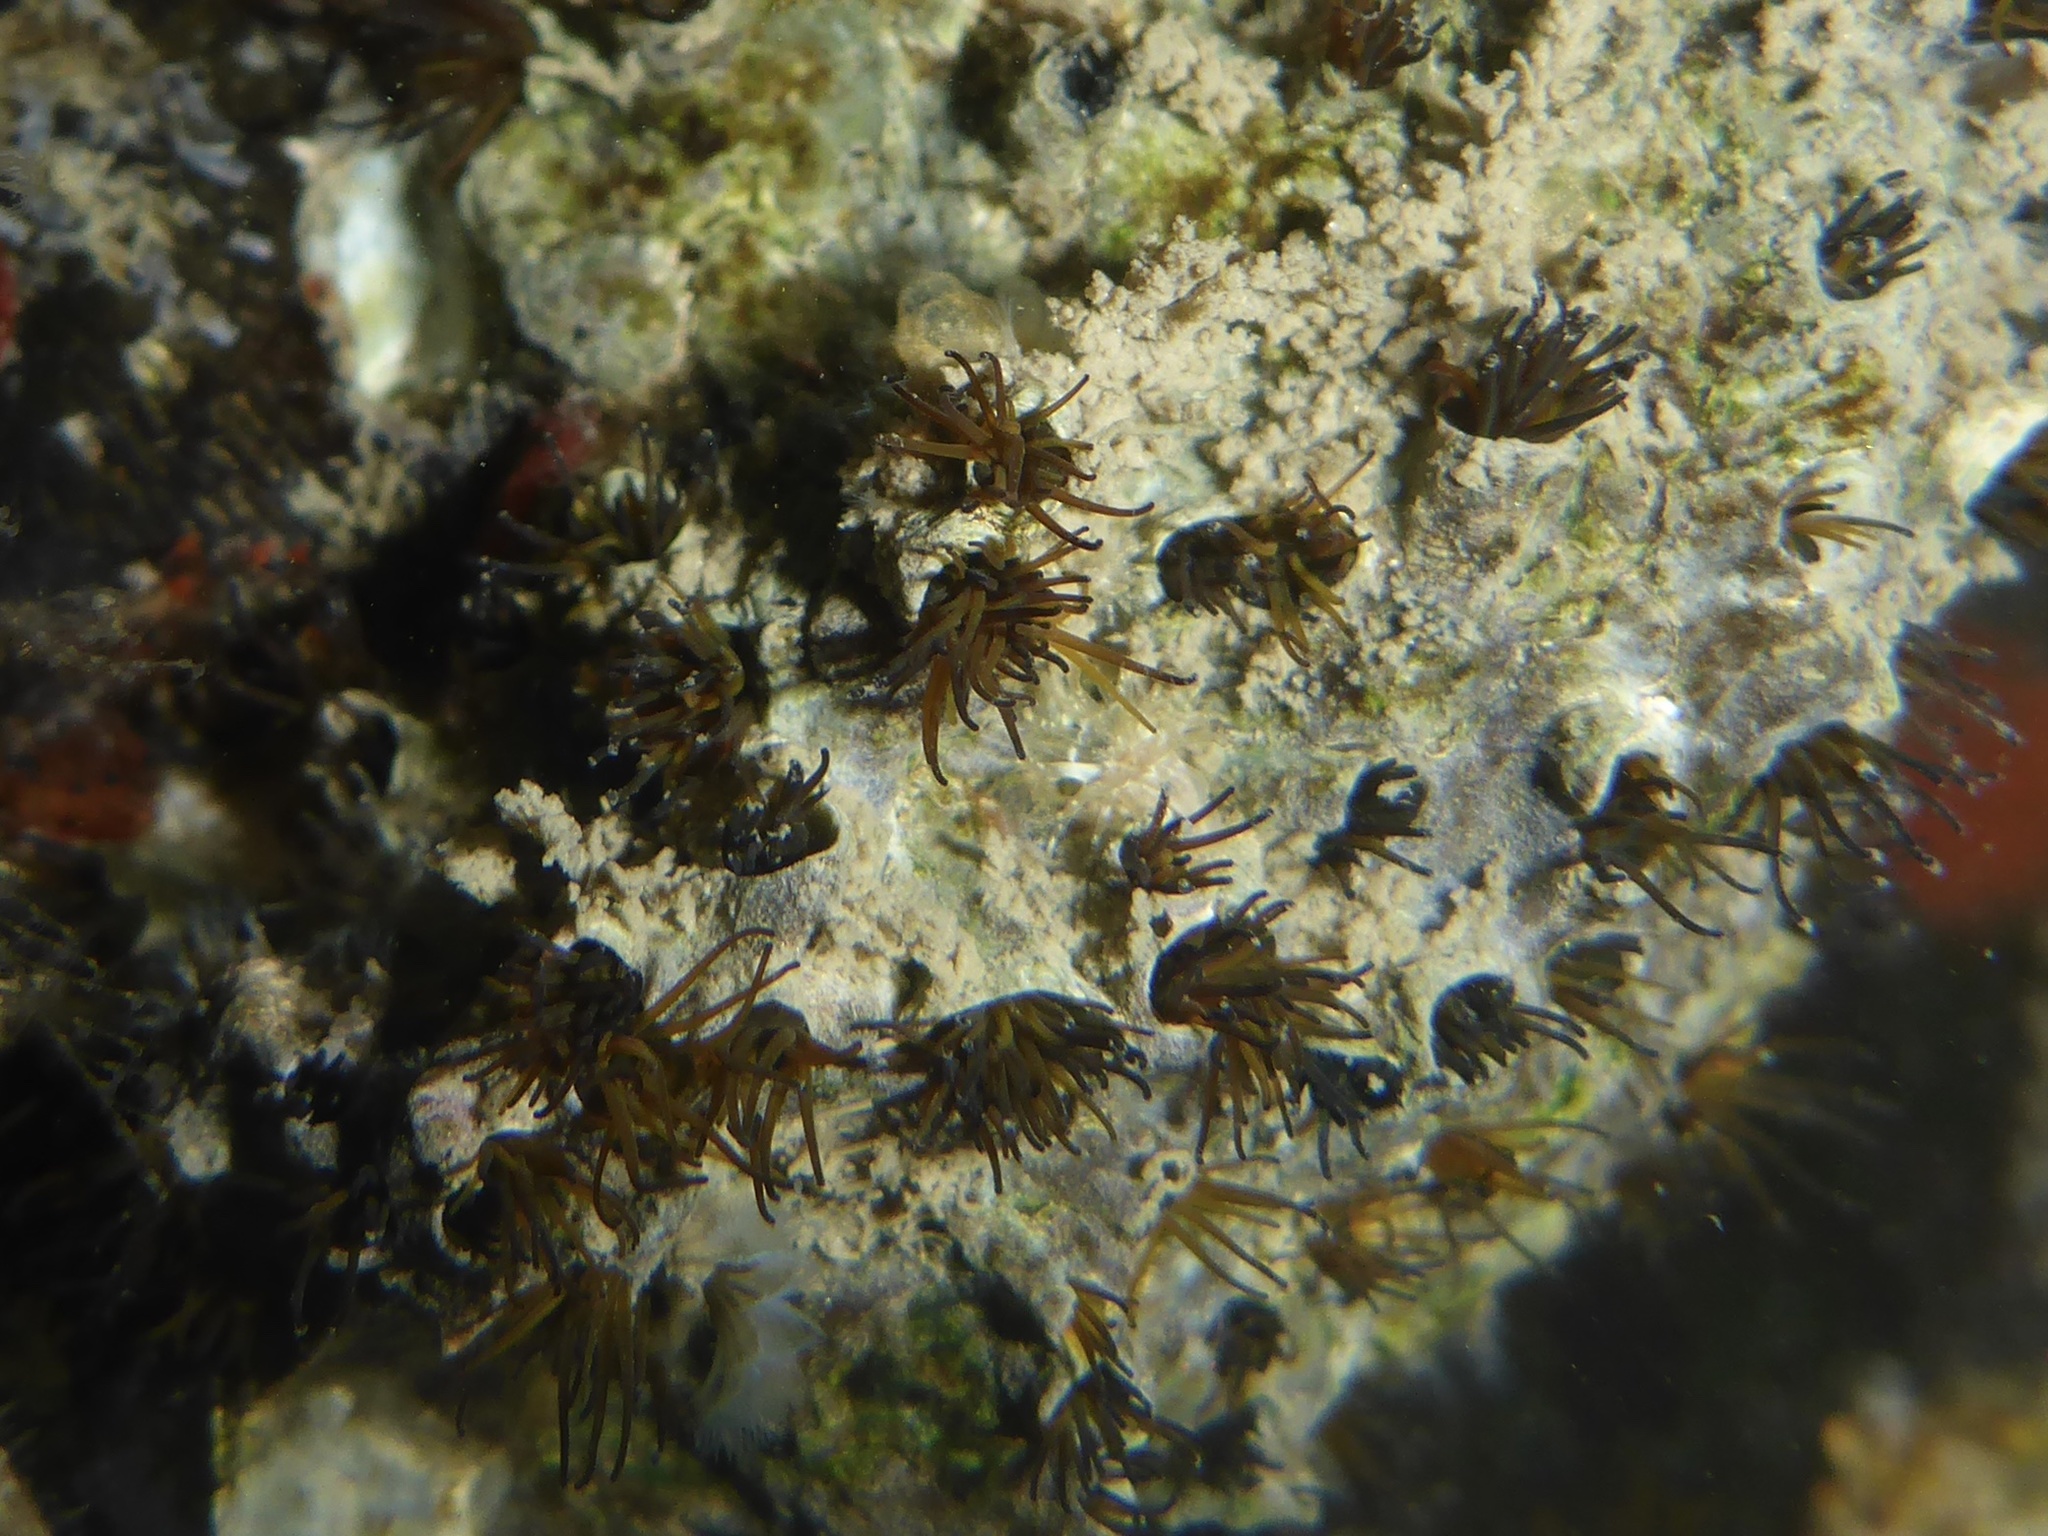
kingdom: Animalia
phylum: Annelida
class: Polychaeta
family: Cirratulidae
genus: Dodecaceria
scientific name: Dodecaceria pacifica
